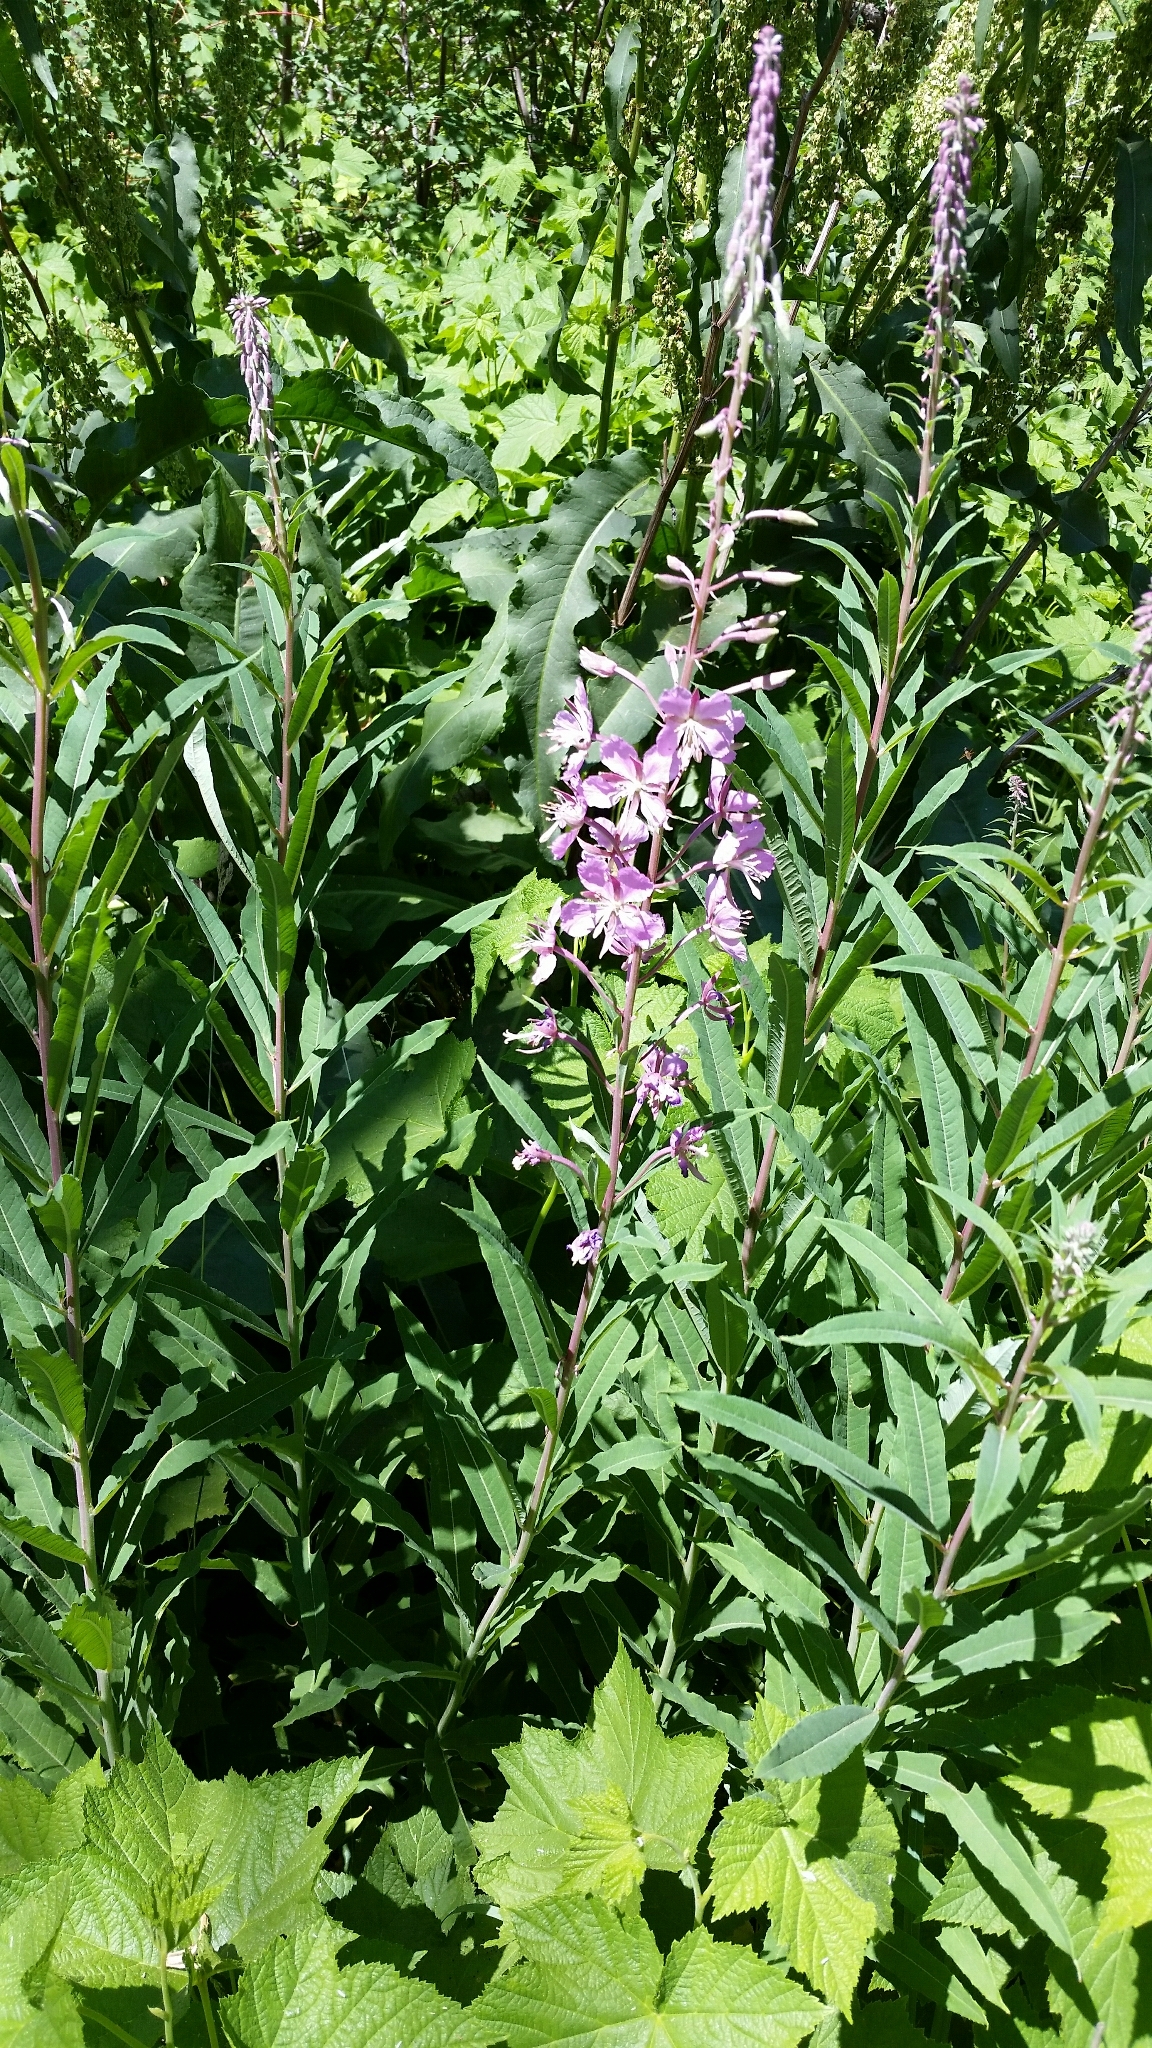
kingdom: Plantae
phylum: Tracheophyta
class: Magnoliopsida
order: Myrtales
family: Onagraceae
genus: Chamaenerion
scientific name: Chamaenerion angustifolium
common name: Fireweed
